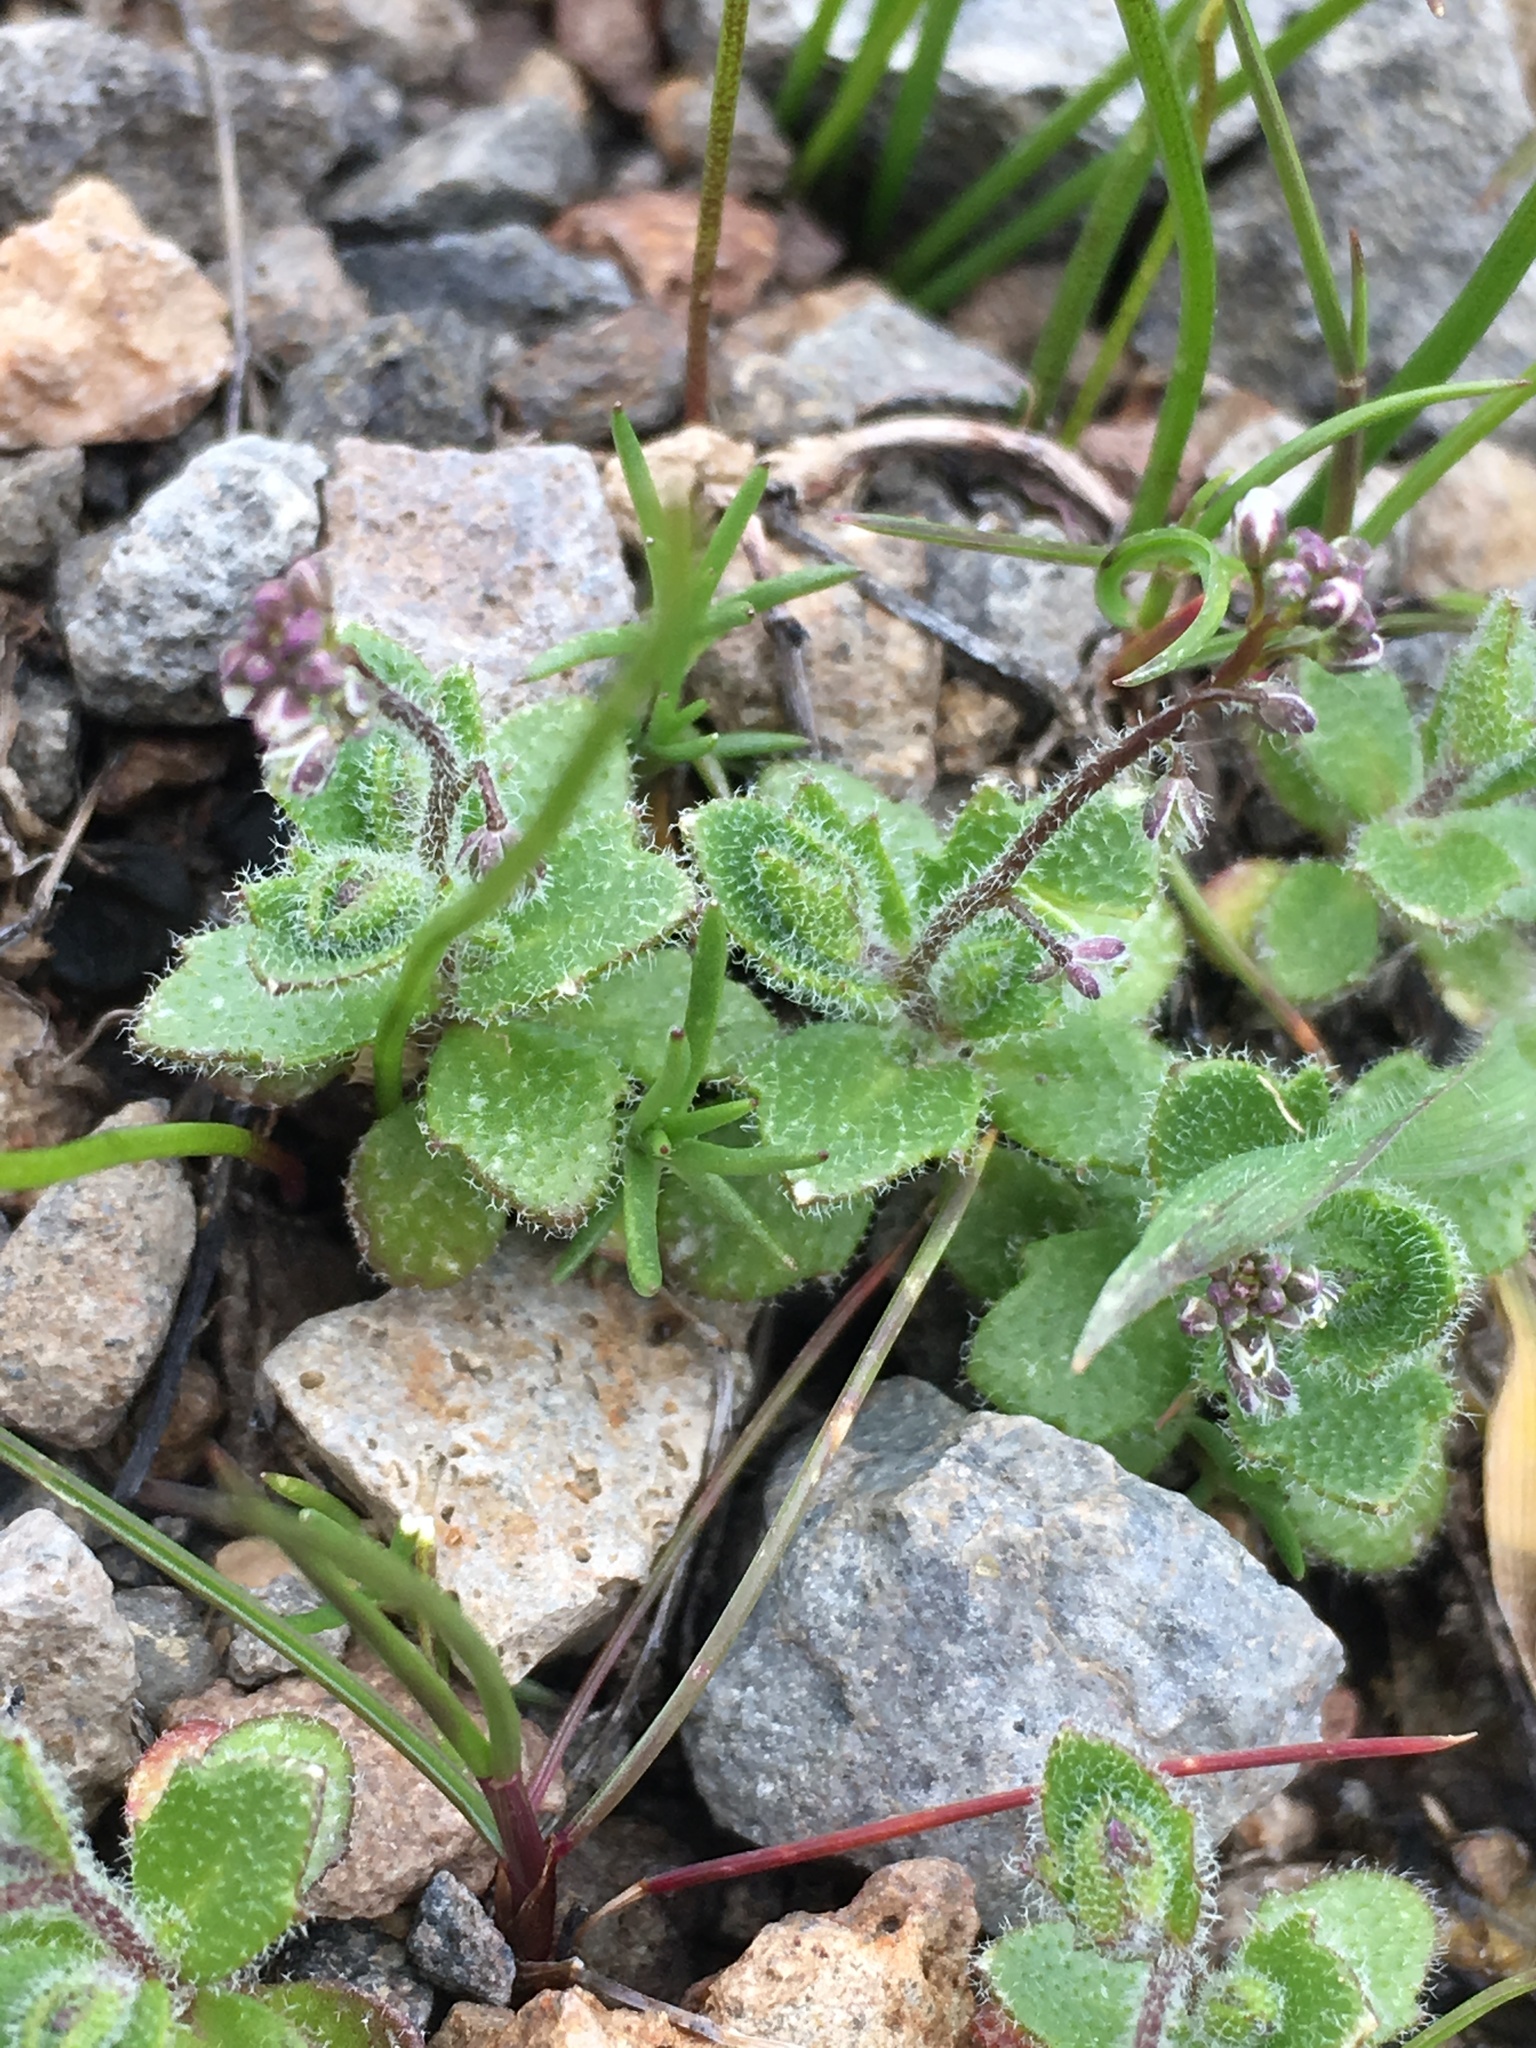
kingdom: Plantae
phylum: Tracheophyta
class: Magnoliopsida
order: Brassicales
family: Brassicaceae
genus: Athysanus
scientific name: Athysanus pusillus
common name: Common sandweed
